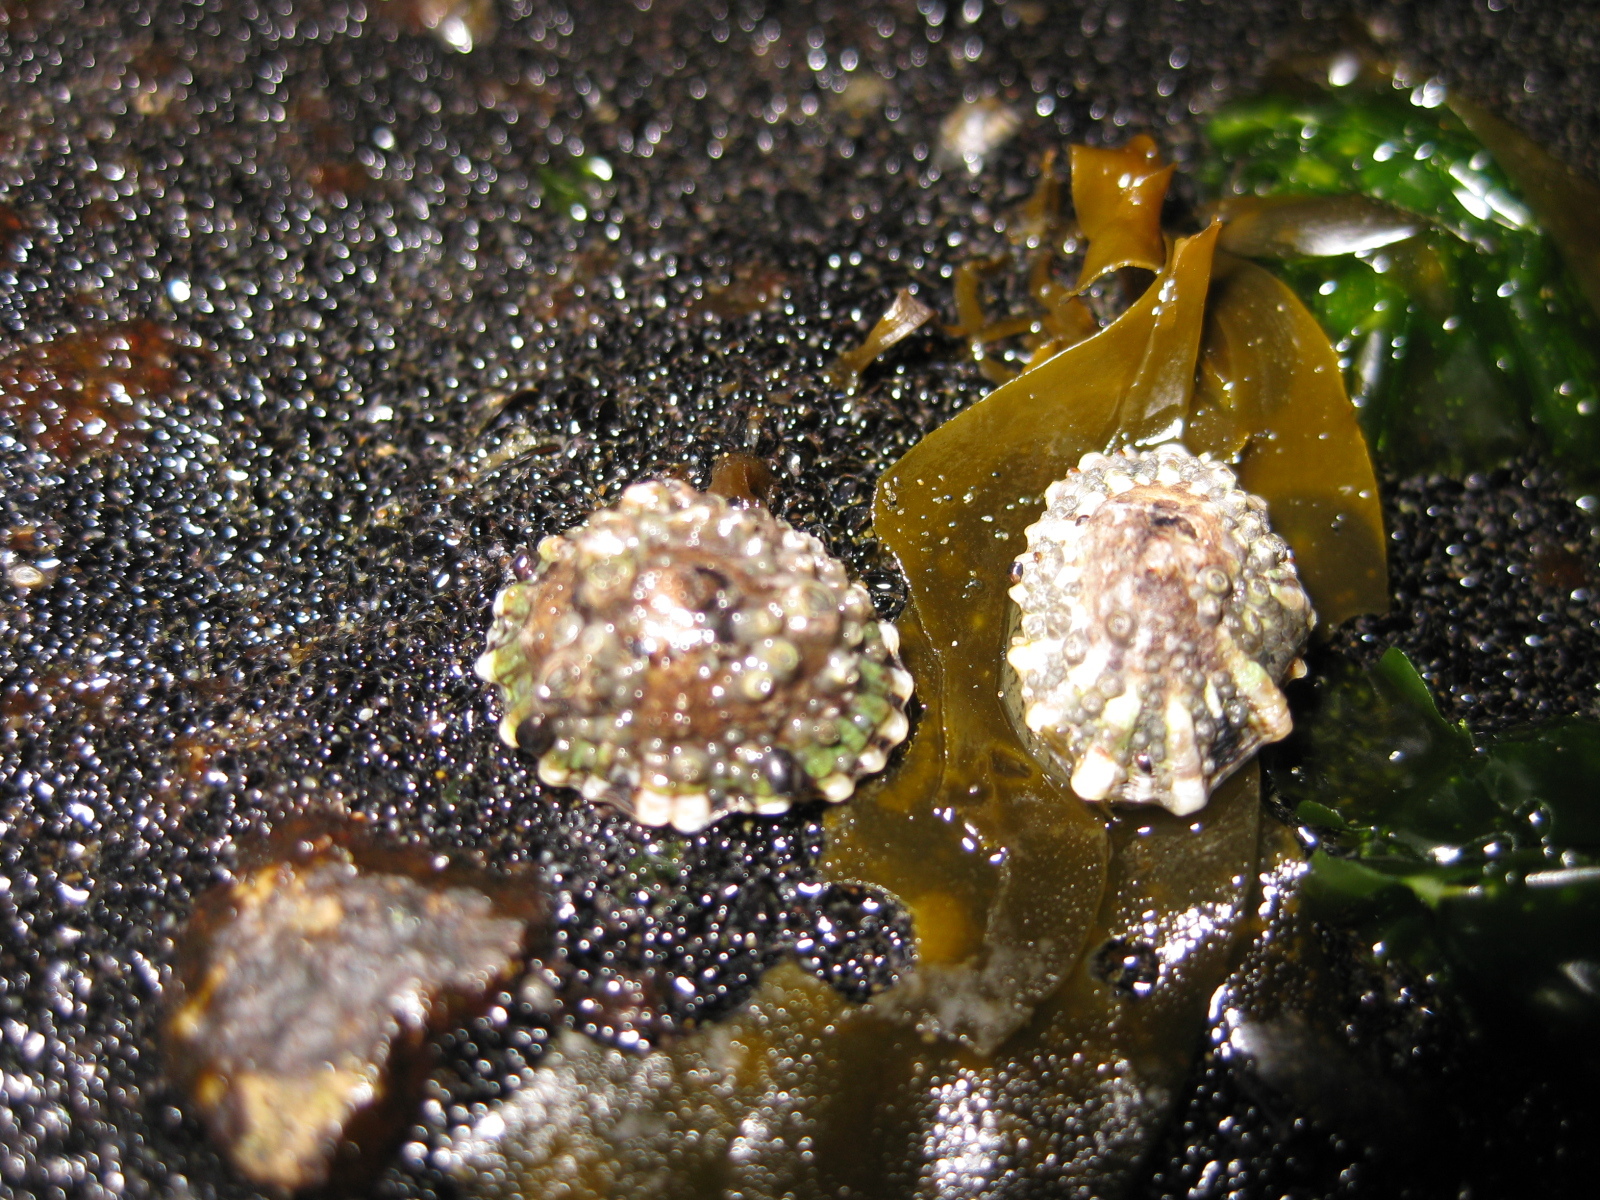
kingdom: Animalia
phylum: Mollusca
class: Gastropoda
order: Siphonariida
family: Siphonariidae
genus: Siphonaria
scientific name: Siphonaria australis
